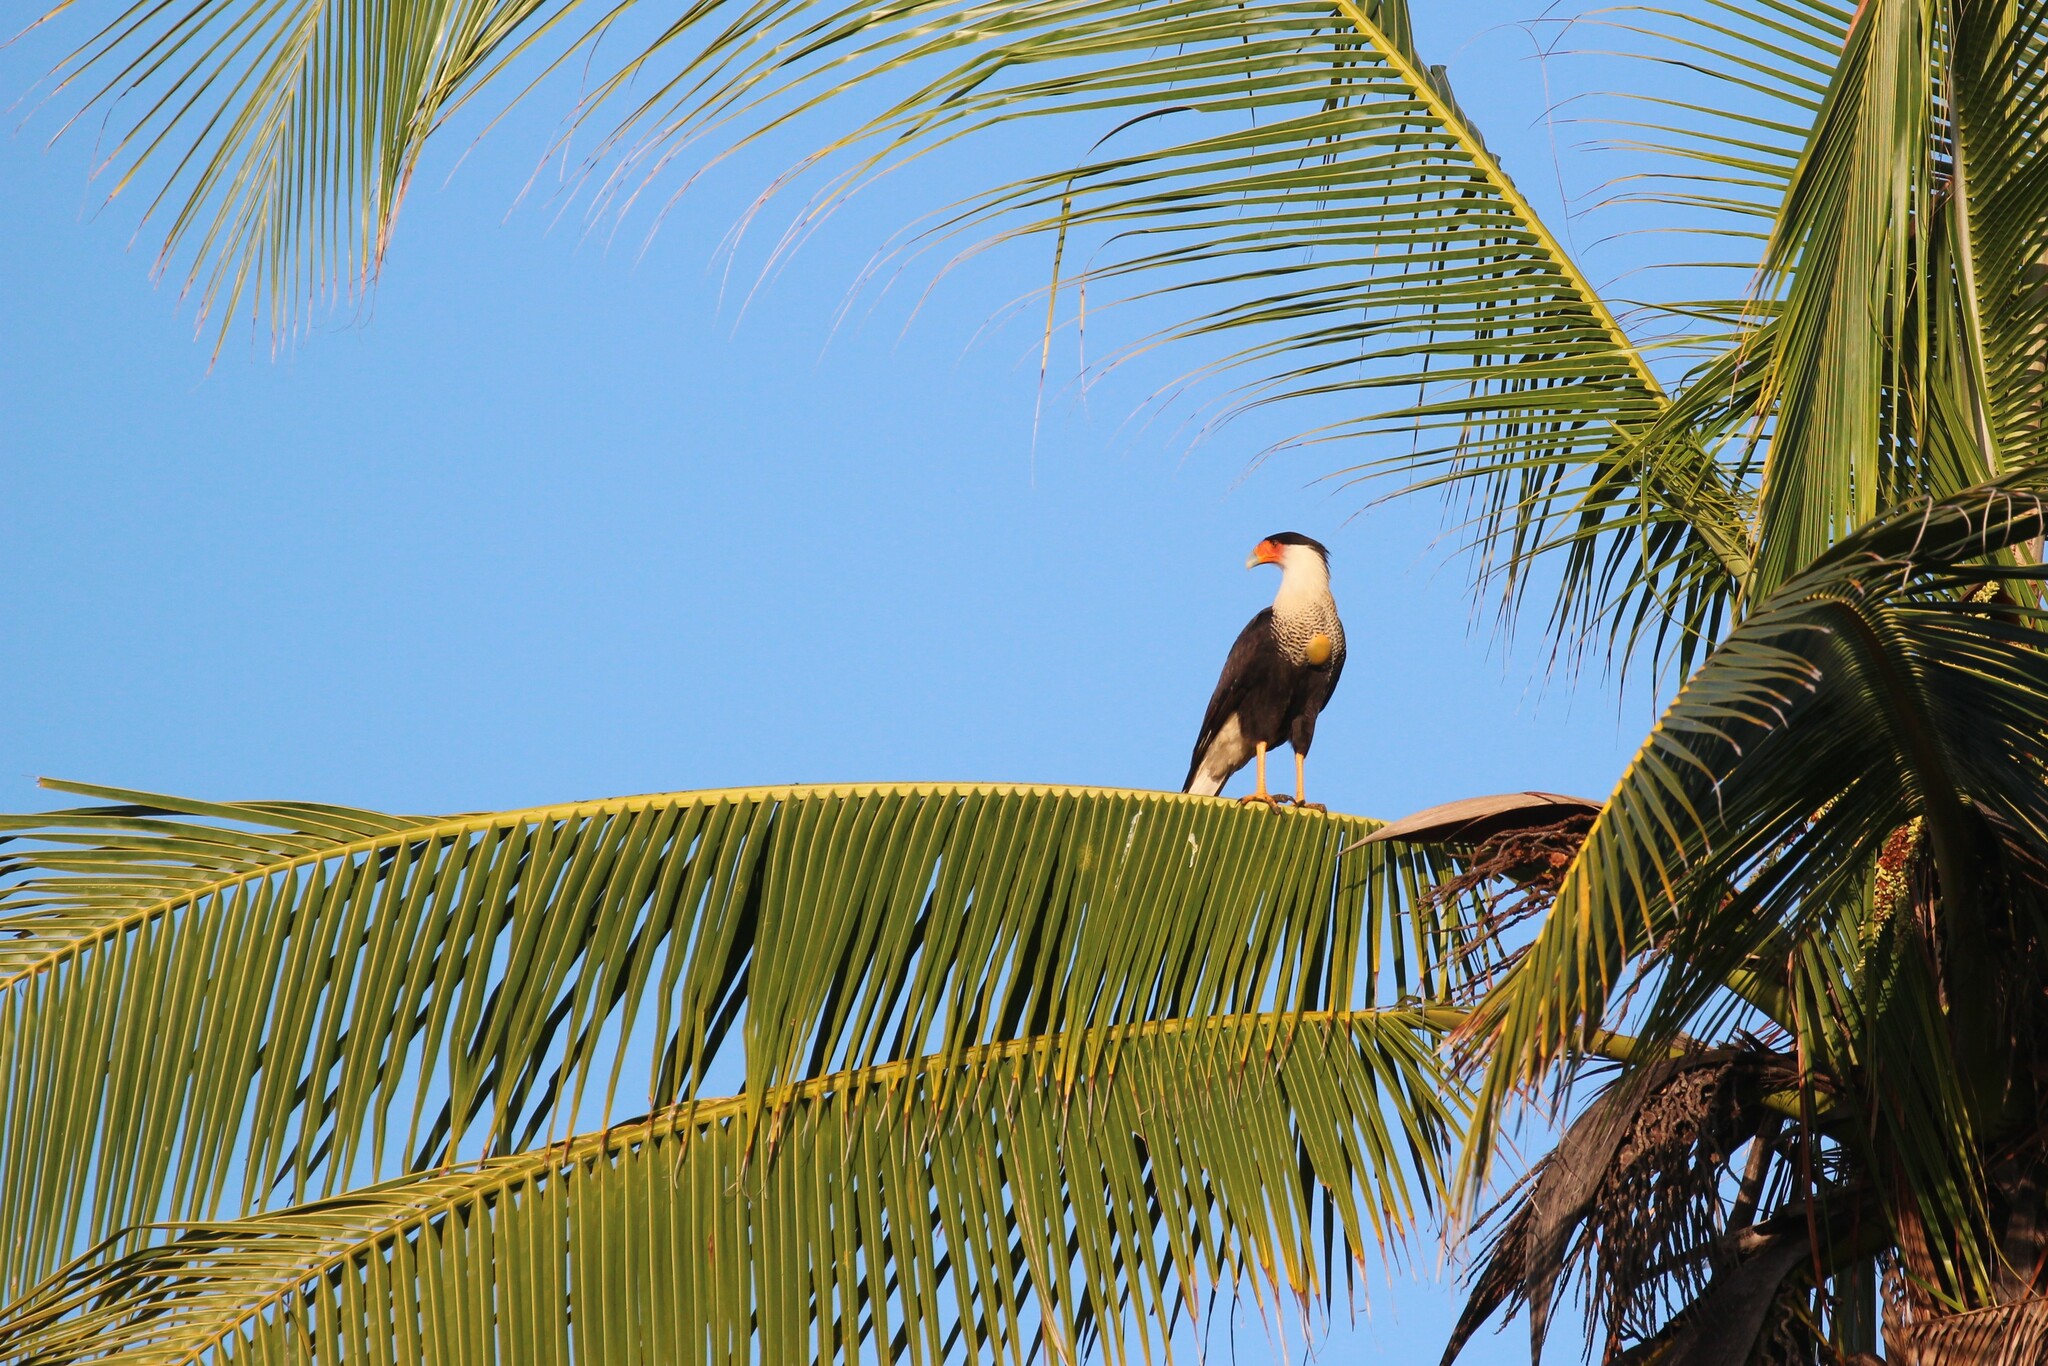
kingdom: Animalia
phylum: Chordata
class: Aves
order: Falconiformes
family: Falconidae
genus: Caracara
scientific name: Caracara plancus
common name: Southern caracara
